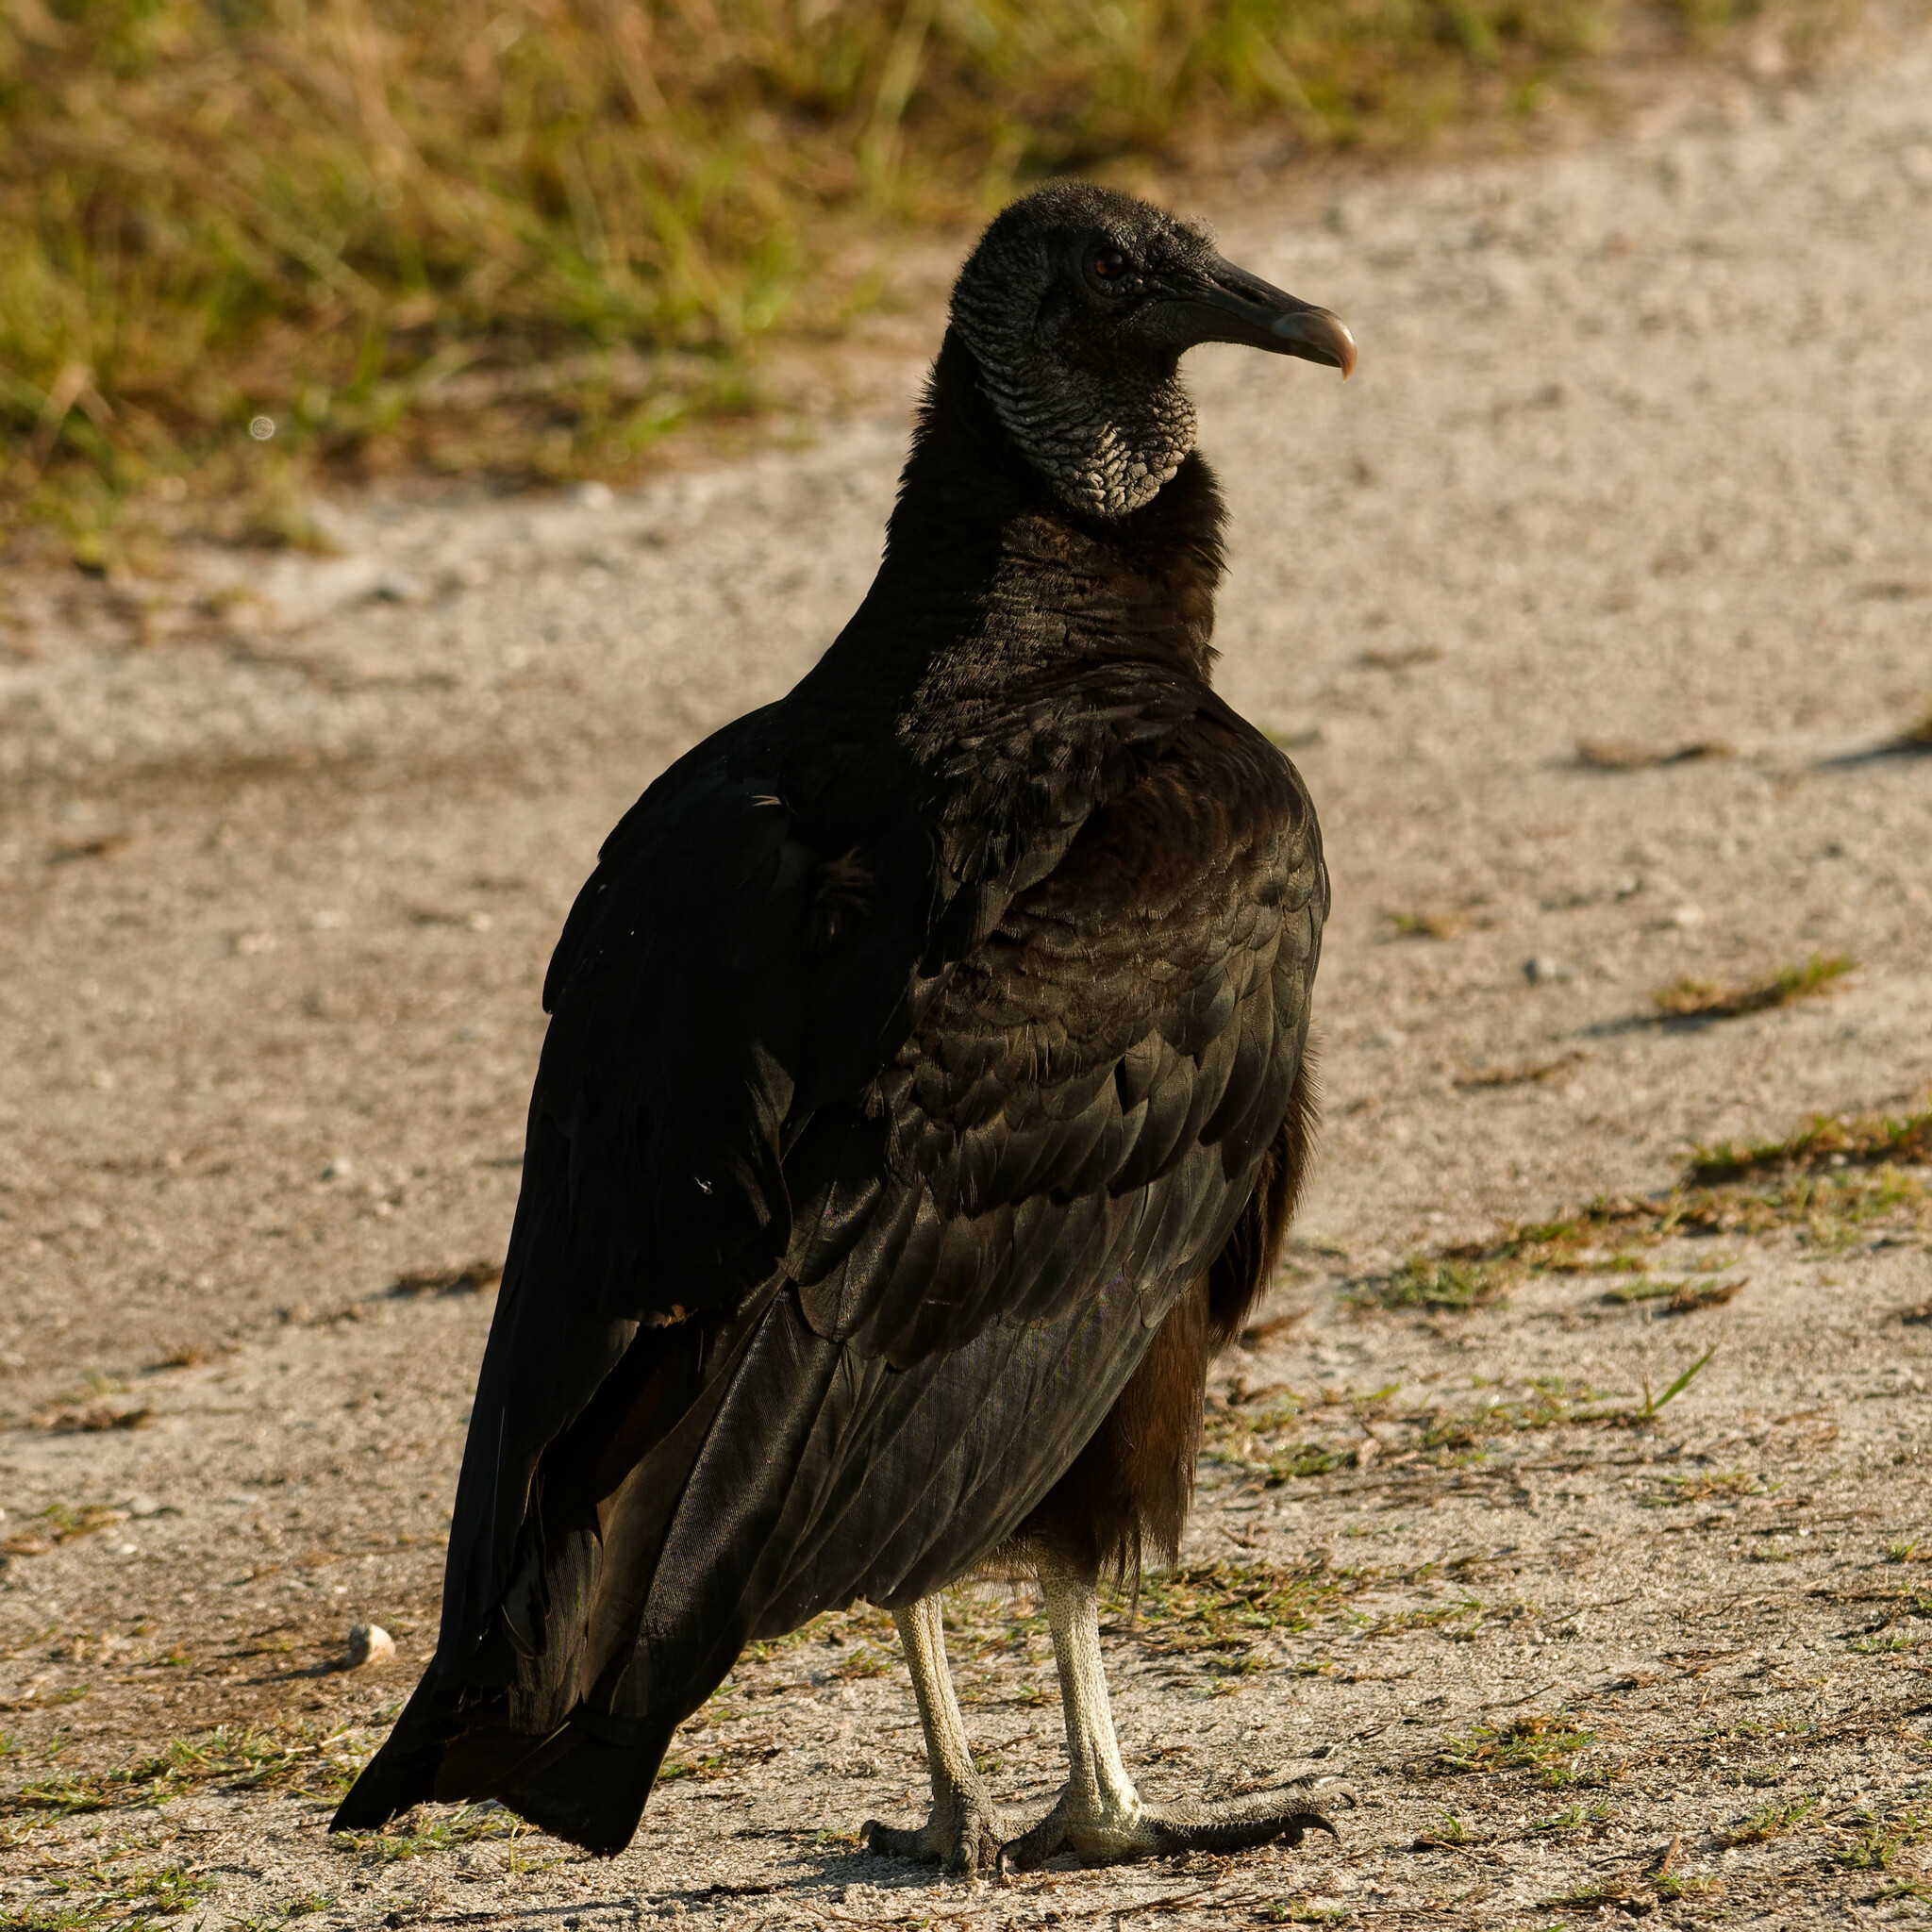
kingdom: Animalia
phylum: Chordata
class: Aves
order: Accipitriformes
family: Cathartidae
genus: Coragyps
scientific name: Coragyps atratus
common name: Black vulture
